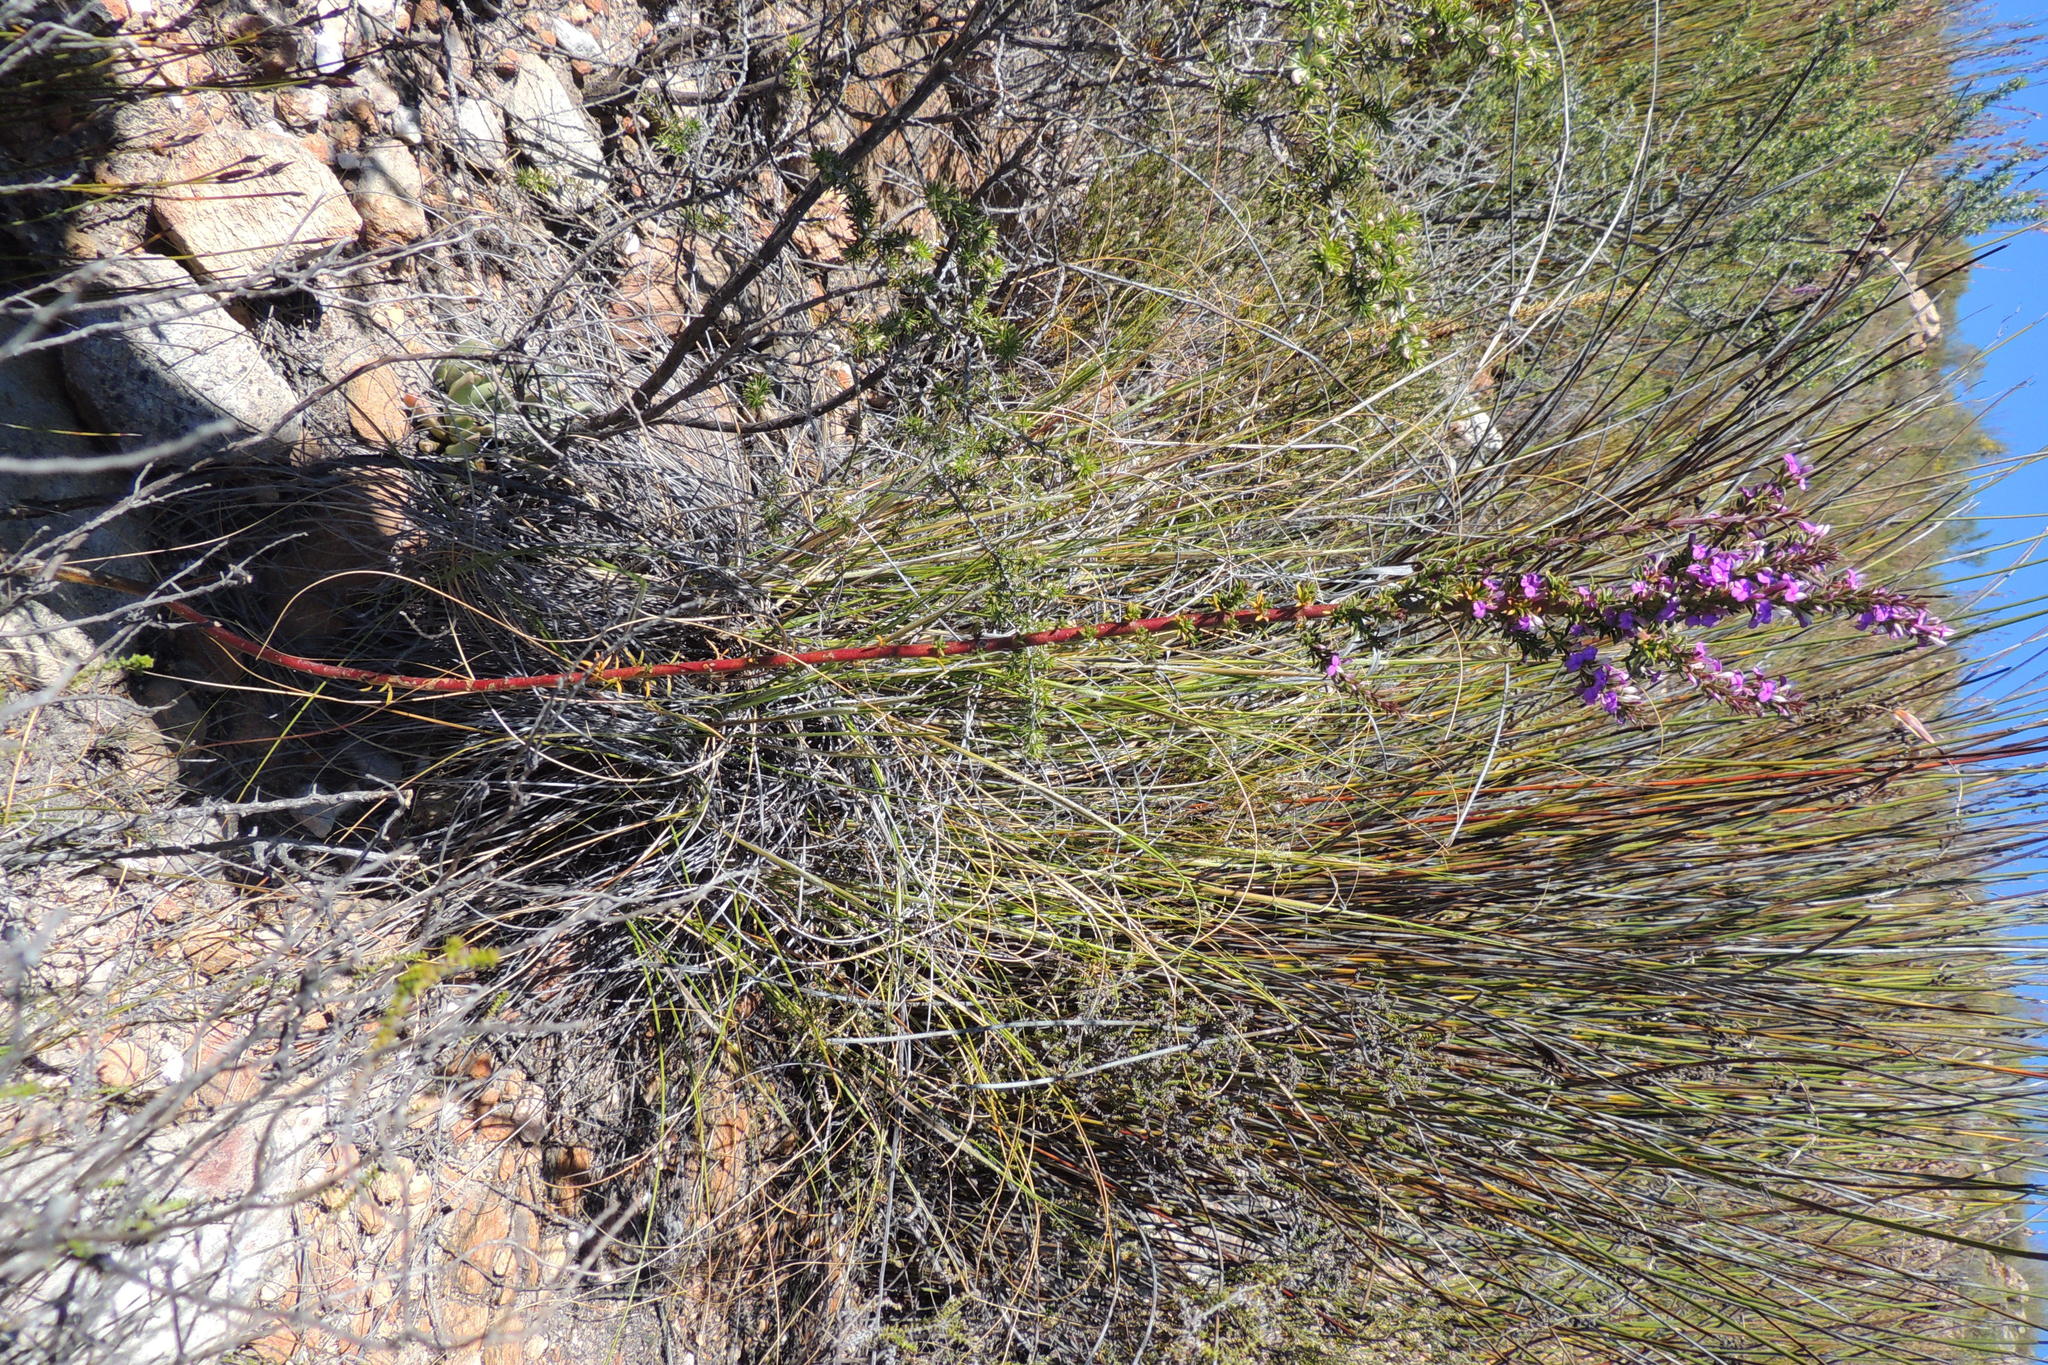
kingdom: Plantae
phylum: Tracheophyta
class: Magnoliopsida
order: Fabales
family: Polygalaceae
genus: Muraltia
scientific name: Muraltia heisteria
